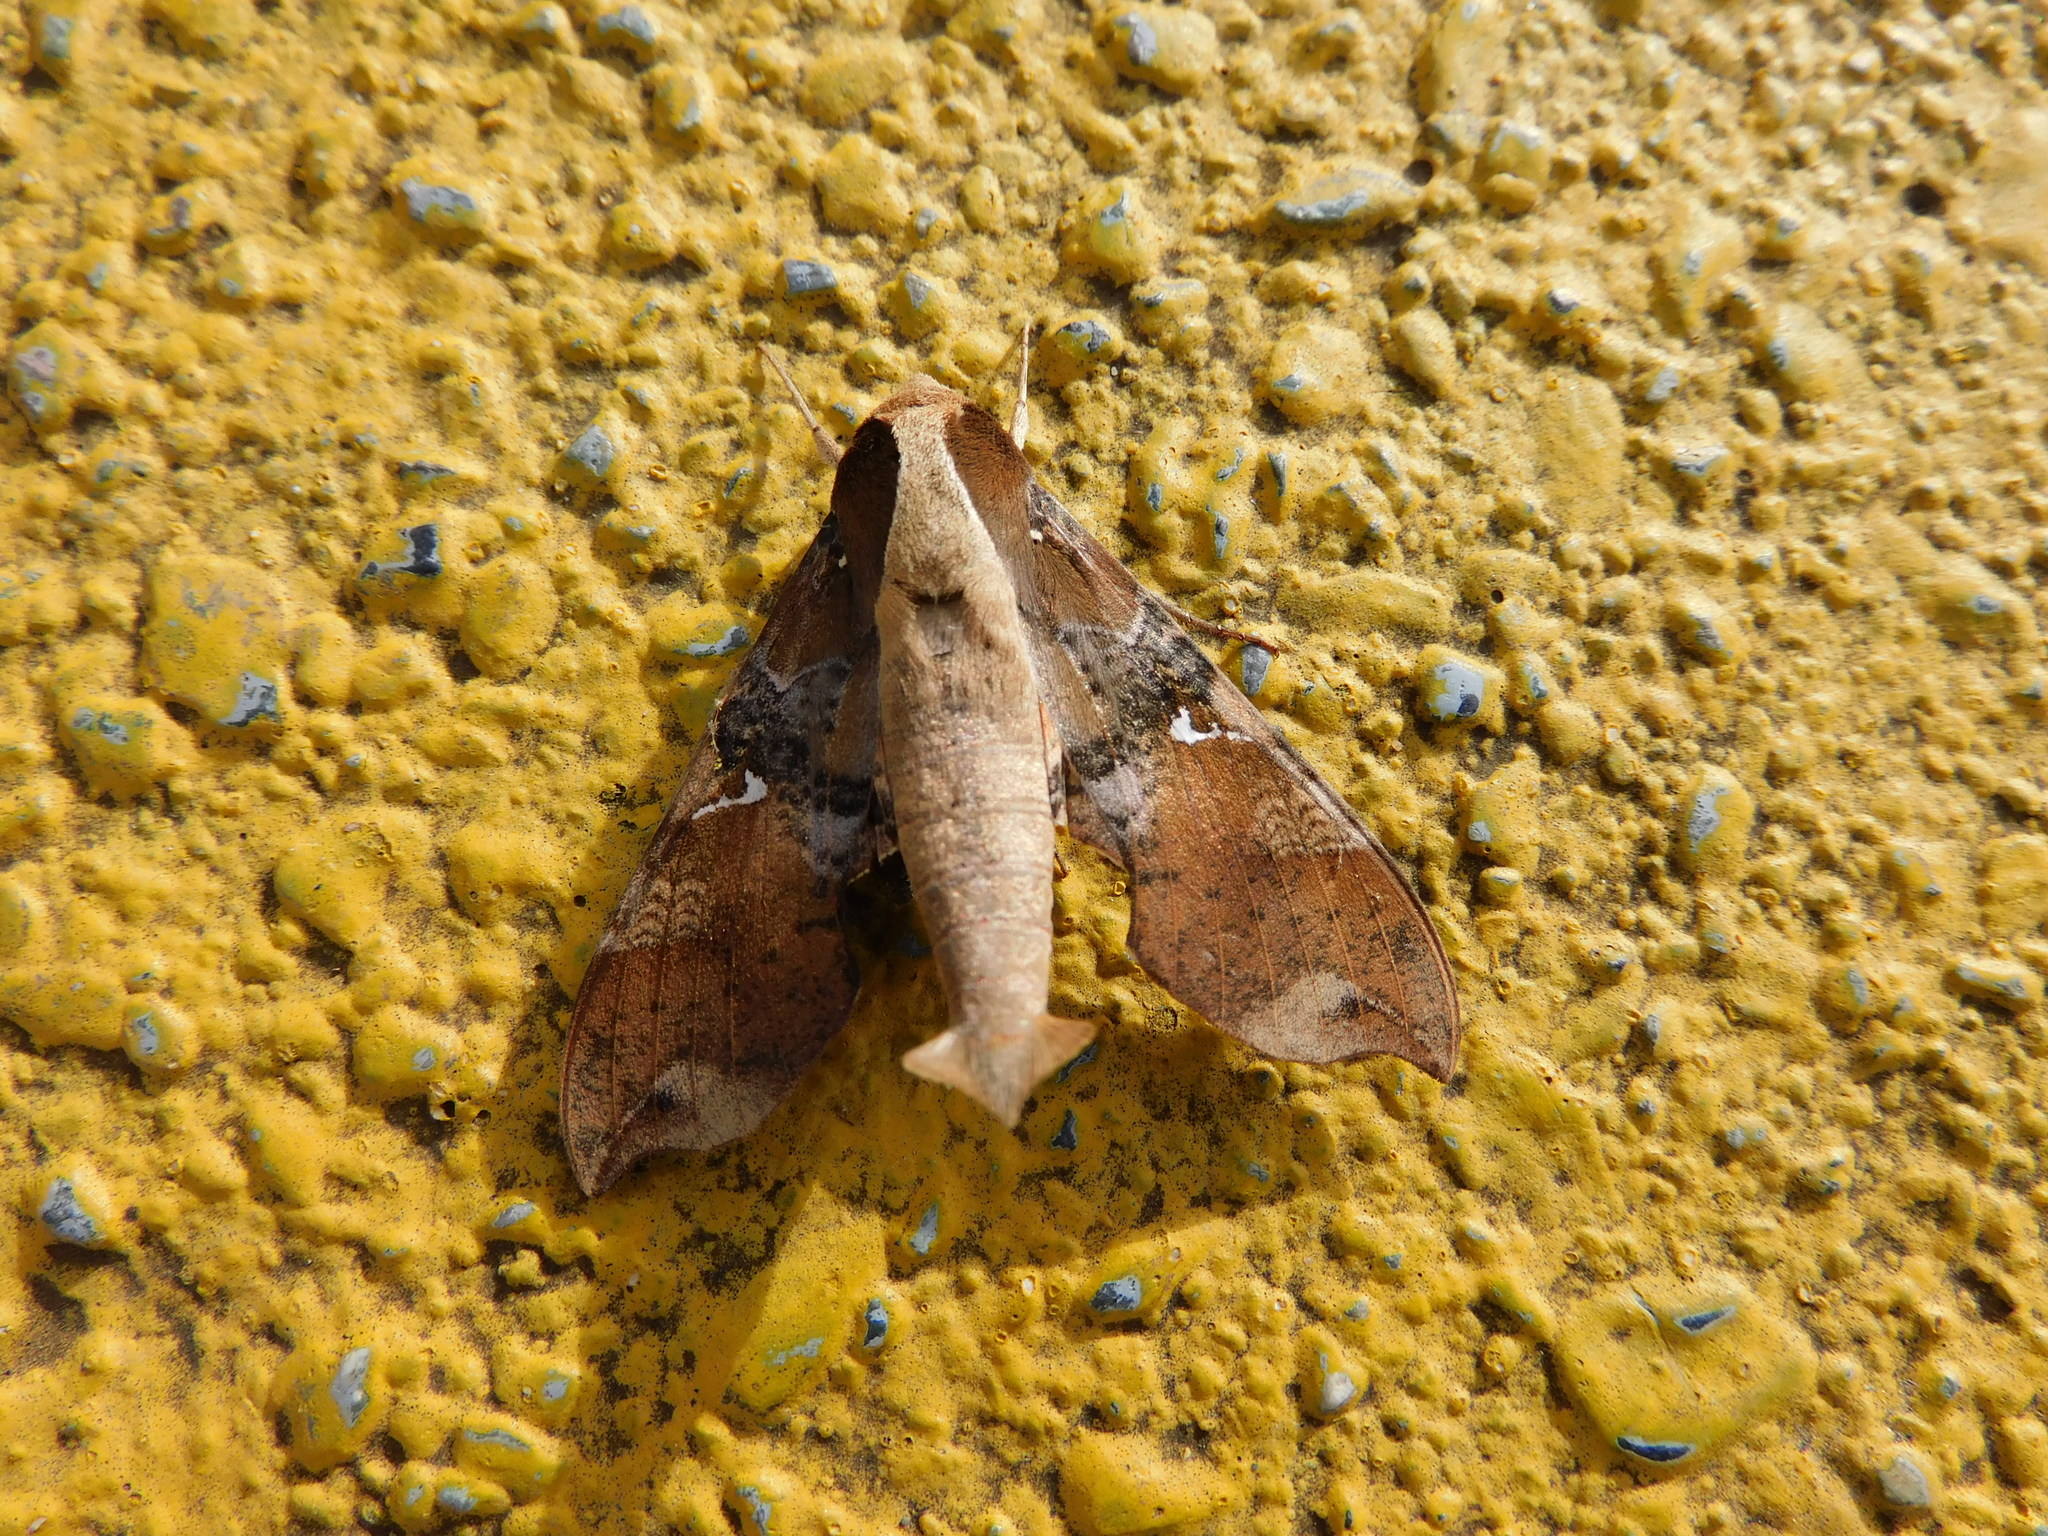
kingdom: Animalia
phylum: Arthropoda
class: Insecta
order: Lepidoptera
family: Sphingidae
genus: Callionima
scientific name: Callionima falcifera
